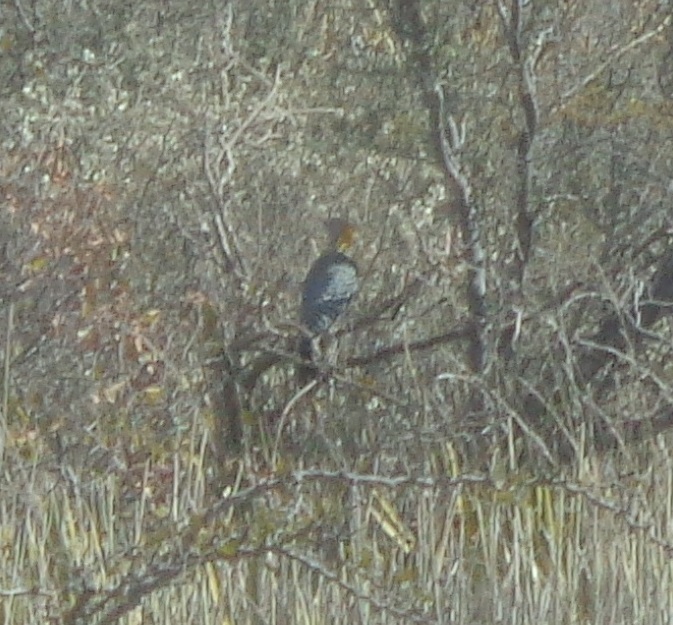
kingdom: Animalia
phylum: Chordata
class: Aves
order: Piciformes
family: Picidae
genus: Melanerpes
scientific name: Melanerpes aurifrons
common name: Golden-fronted woodpecker
